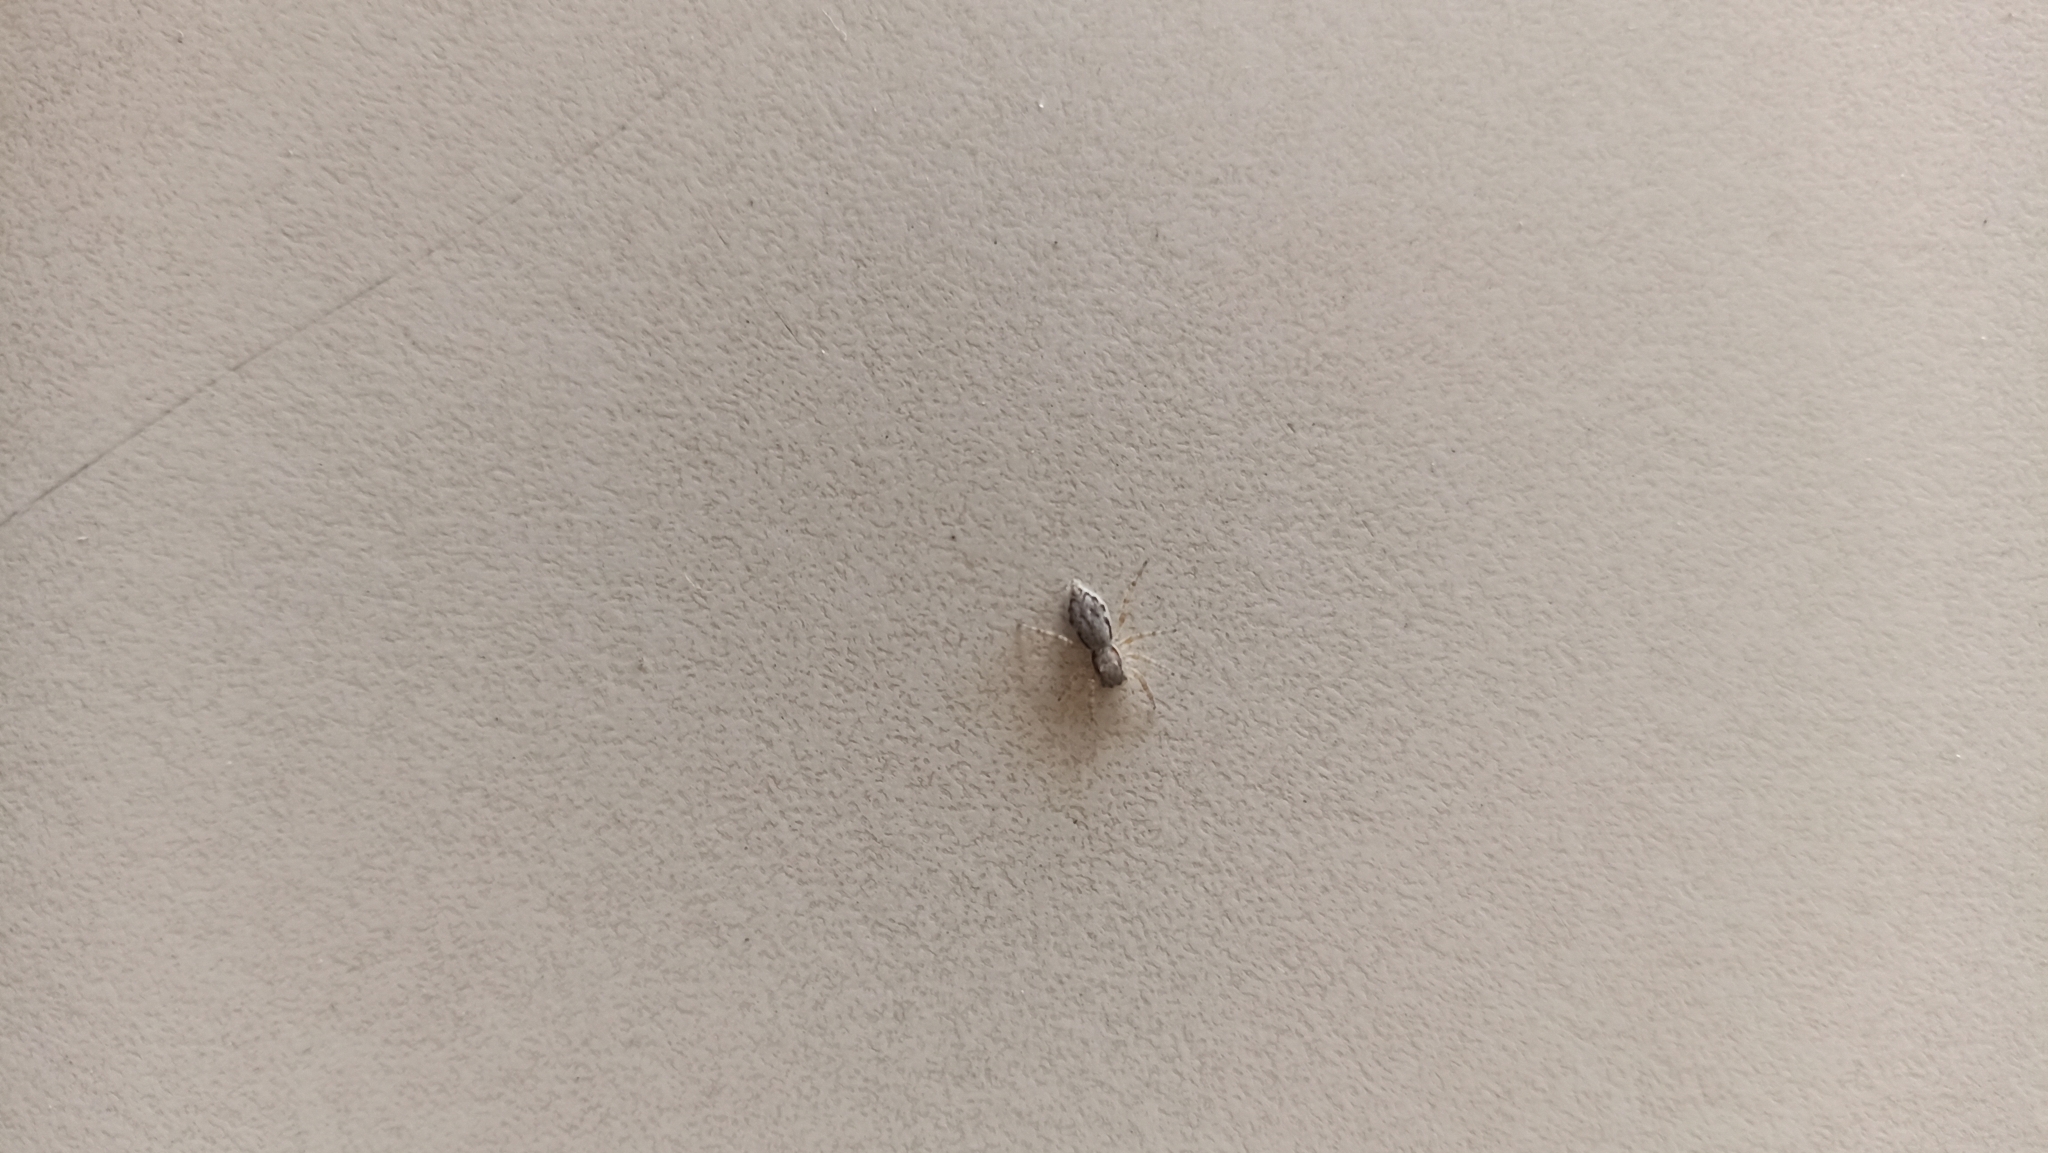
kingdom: Animalia
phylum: Arthropoda
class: Arachnida
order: Araneae
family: Salticidae
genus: Menemerus
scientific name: Menemerus bivittatus
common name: Gray wall jumper
